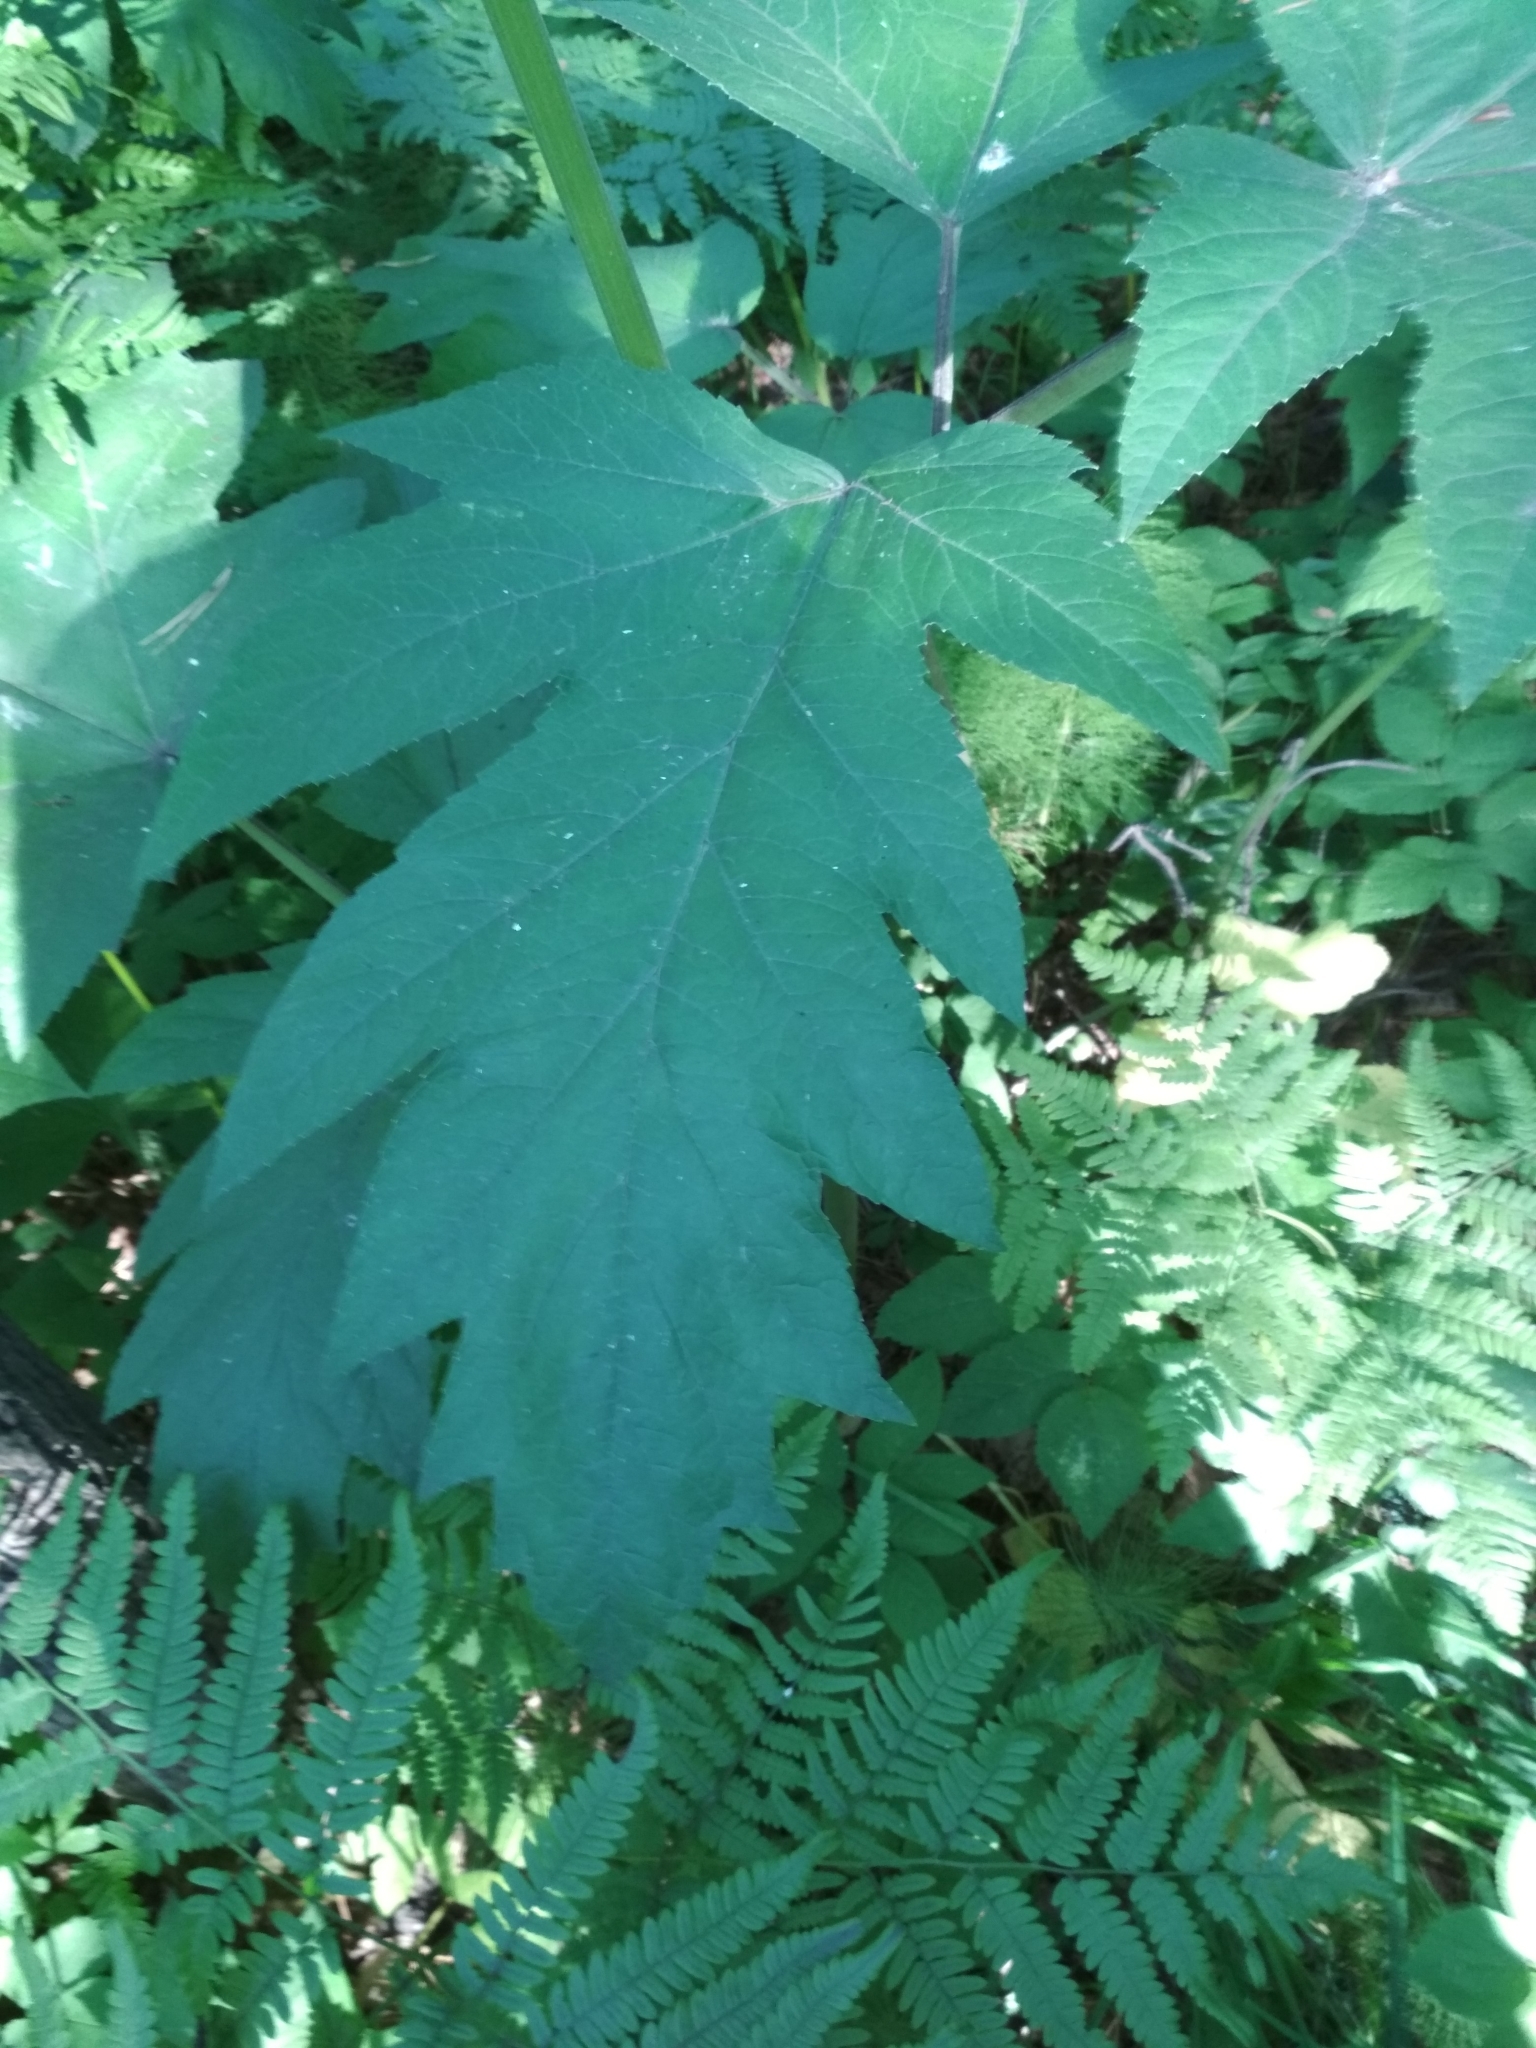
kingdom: Plantae
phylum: Tracheophyta
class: Magnoliopsida
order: Apiales
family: Apiaceae
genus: Heracleum
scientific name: Heracleum dissectum
